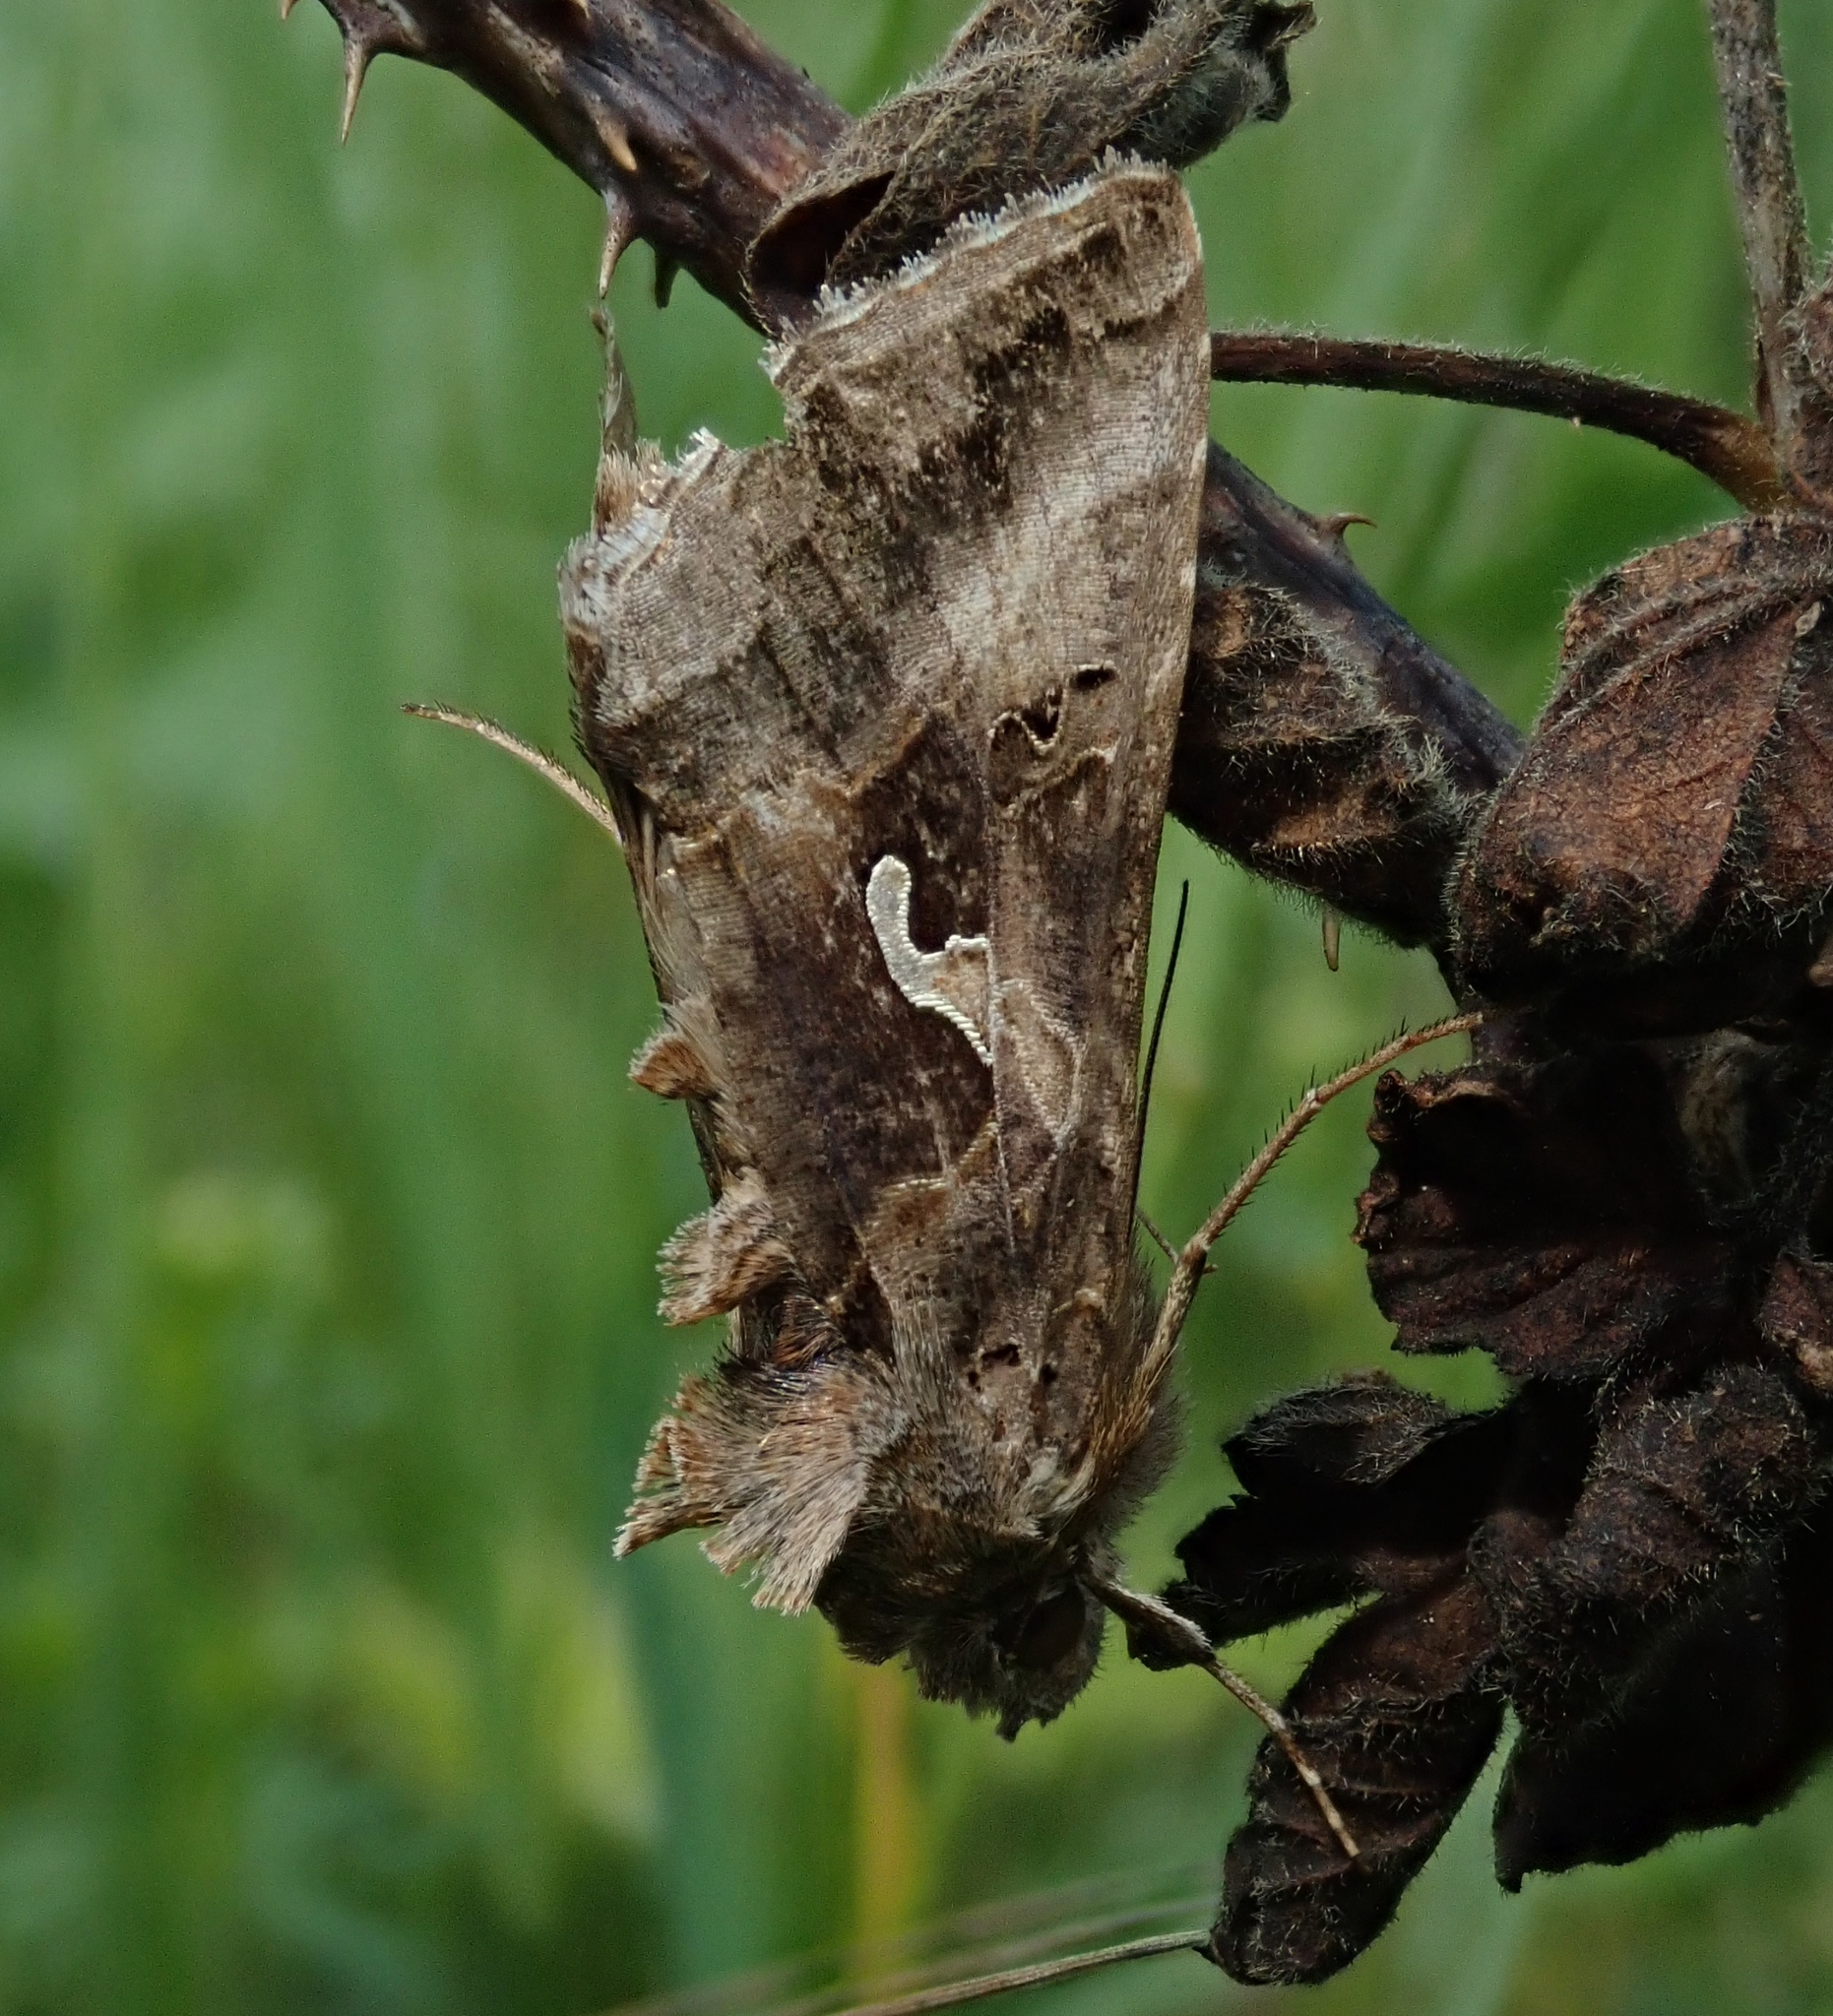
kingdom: Animalia
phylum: Arthropoda
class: Insecta
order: Lepidoptera
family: Noctuidae
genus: Autographa
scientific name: Autographa gamma
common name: Silver y
